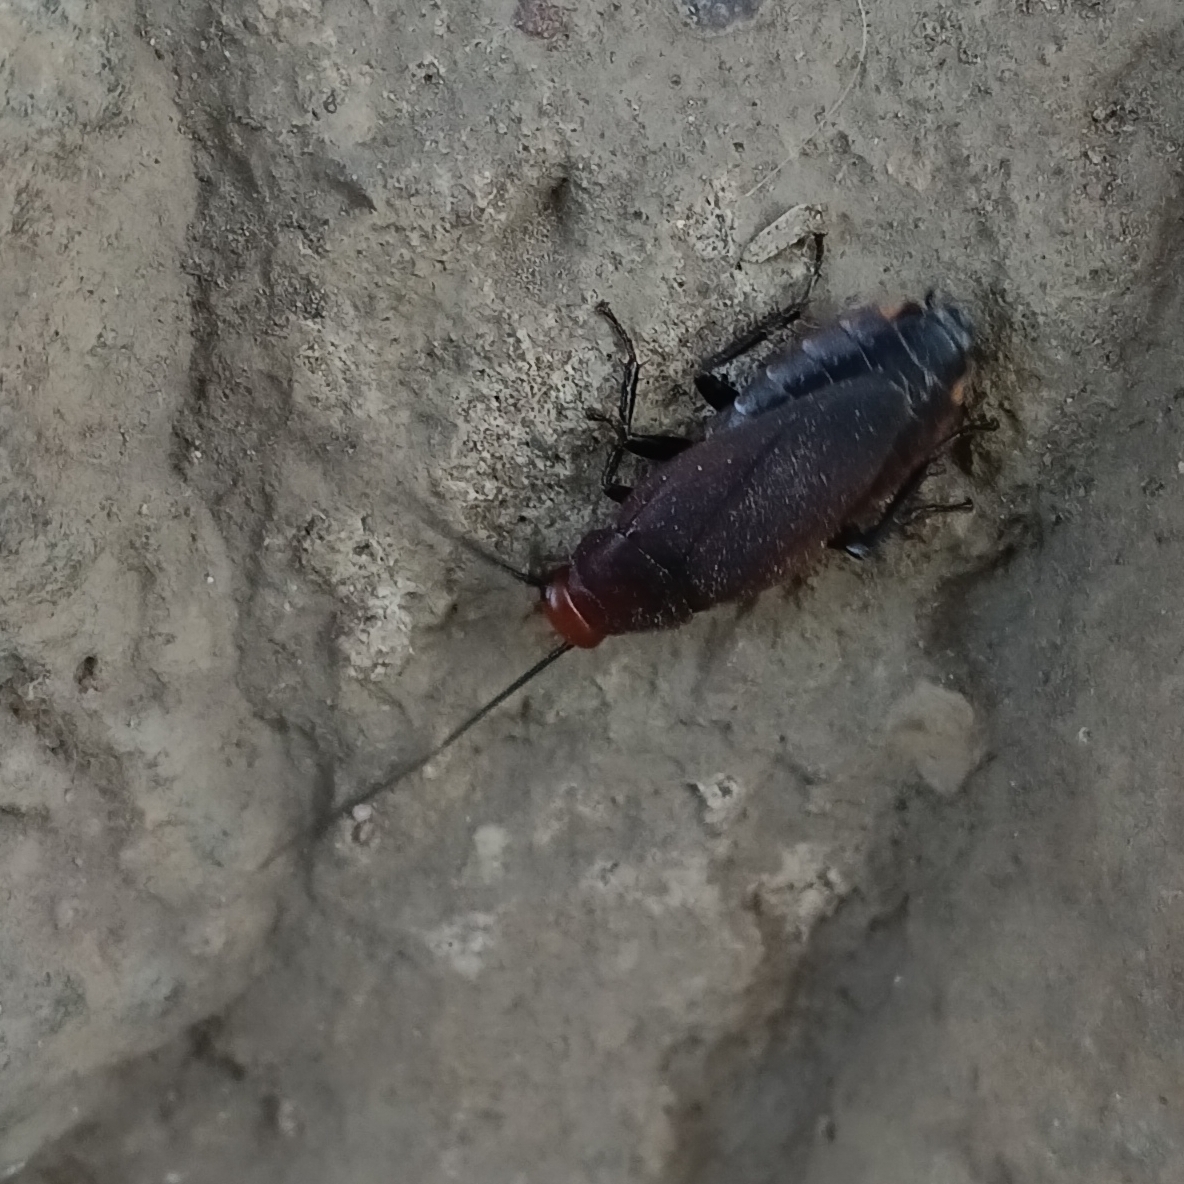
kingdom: Animalia
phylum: Arthropoda
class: Insecta
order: Blattodea
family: Blaberidae
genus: Oxyhaloa
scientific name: Oxyhaloa deusta
